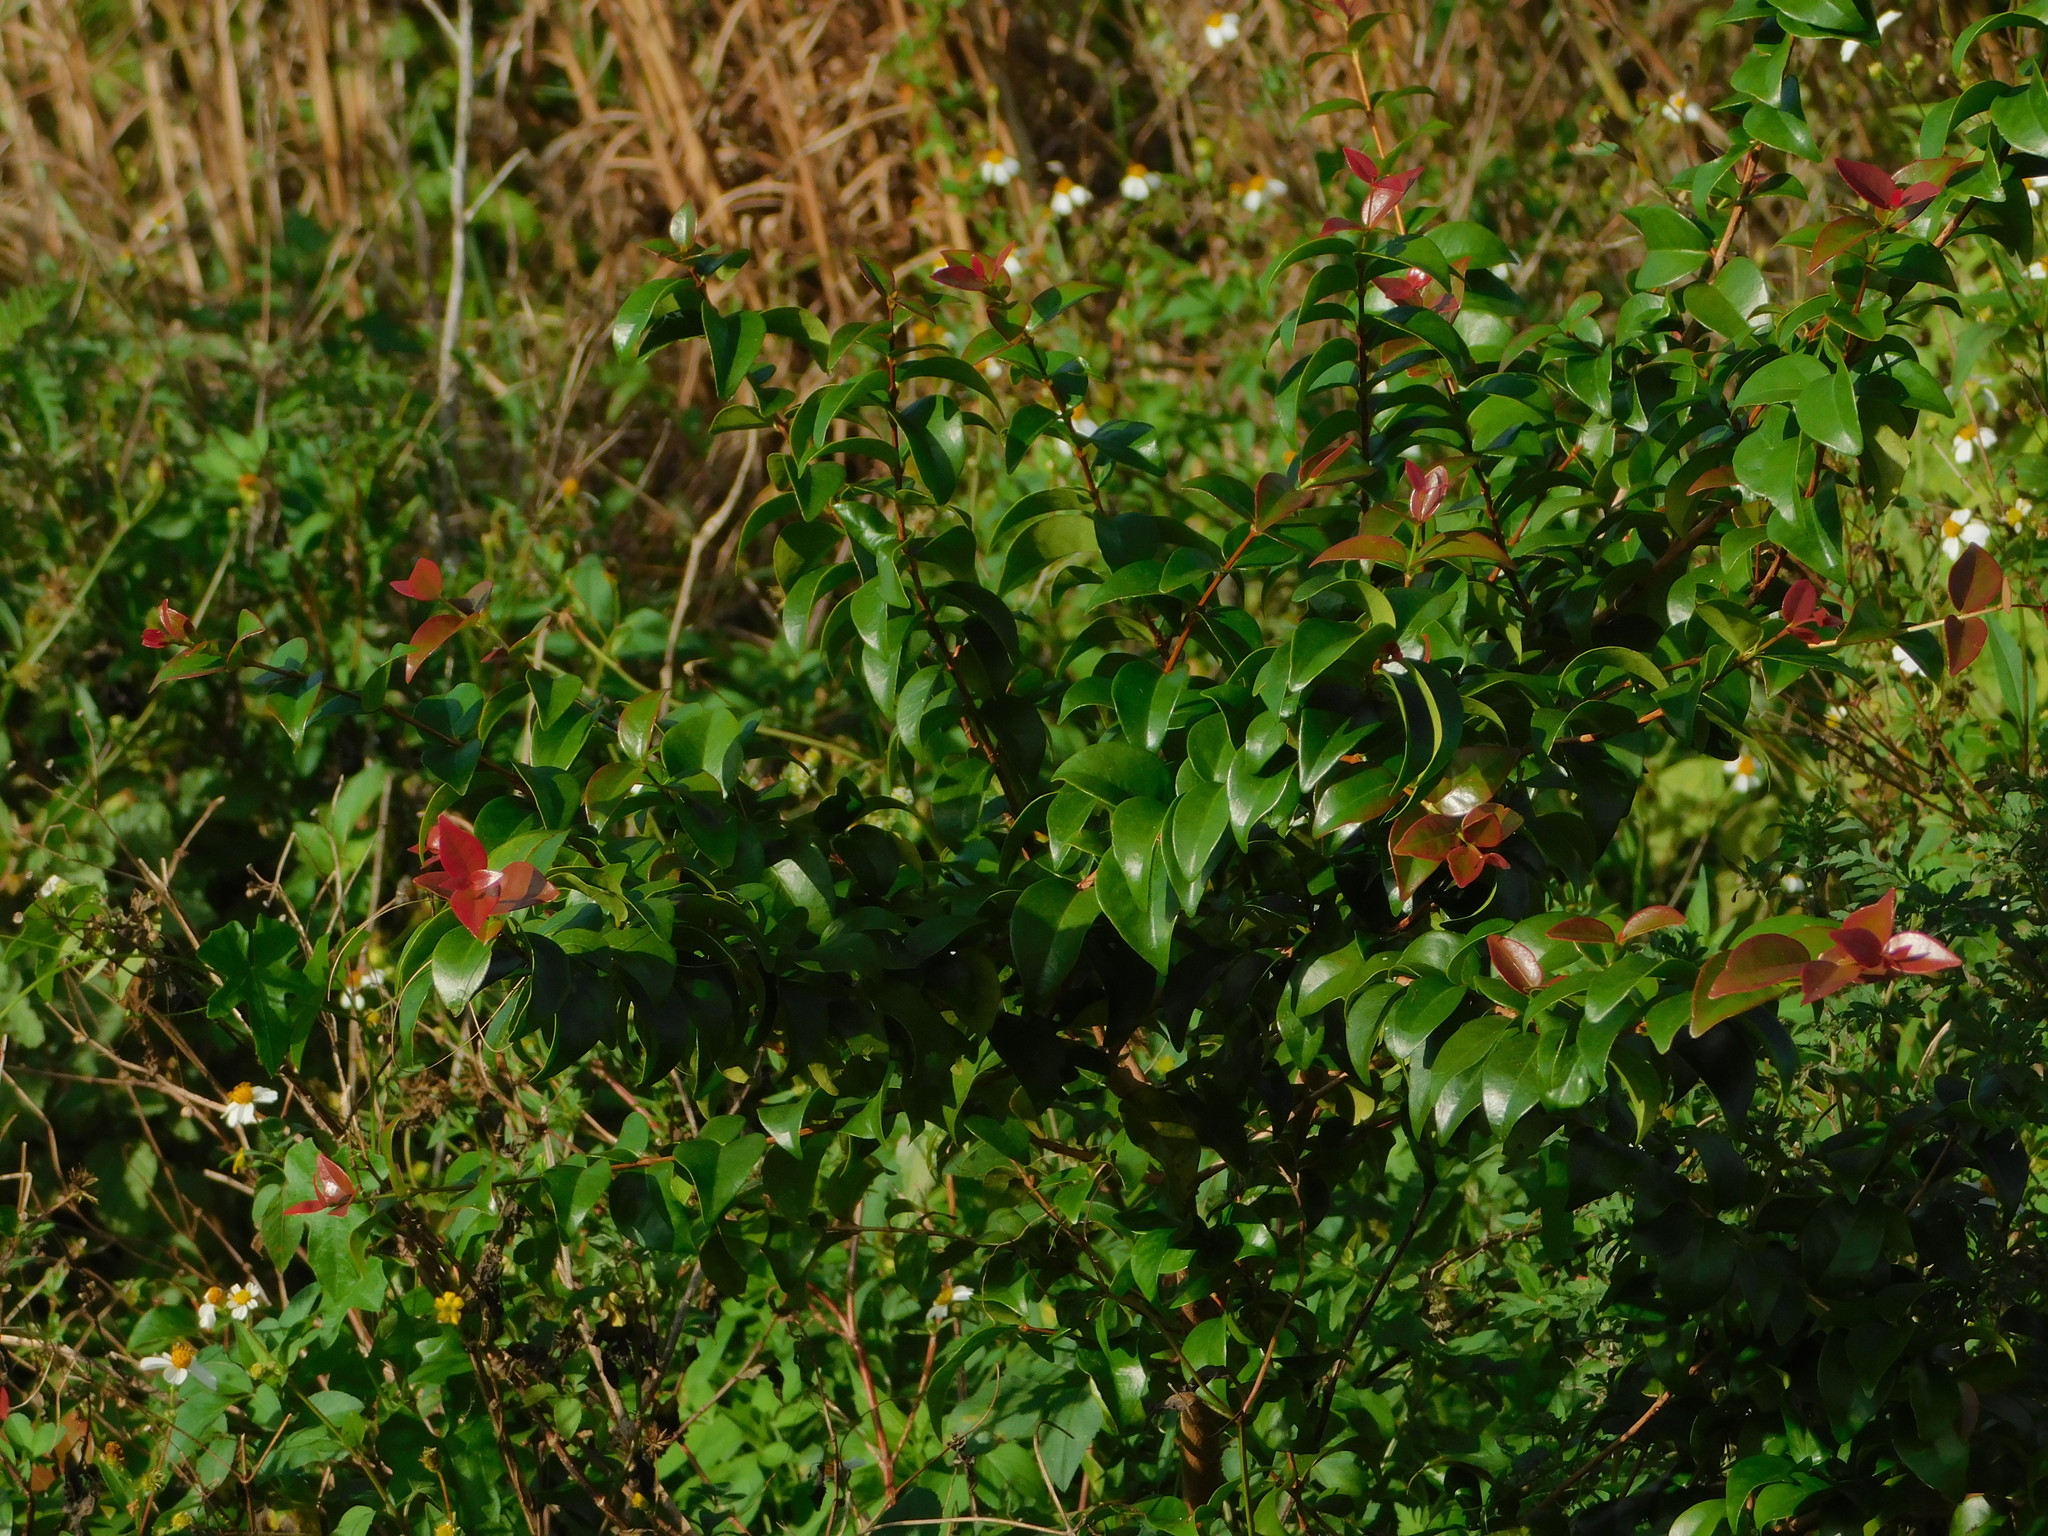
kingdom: Plantae
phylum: Tracheophyta
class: Magnoliopsida
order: Myrtales
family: Myrtaceae
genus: Eugenia
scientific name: Eugenia uniflora
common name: Surinam cherry
